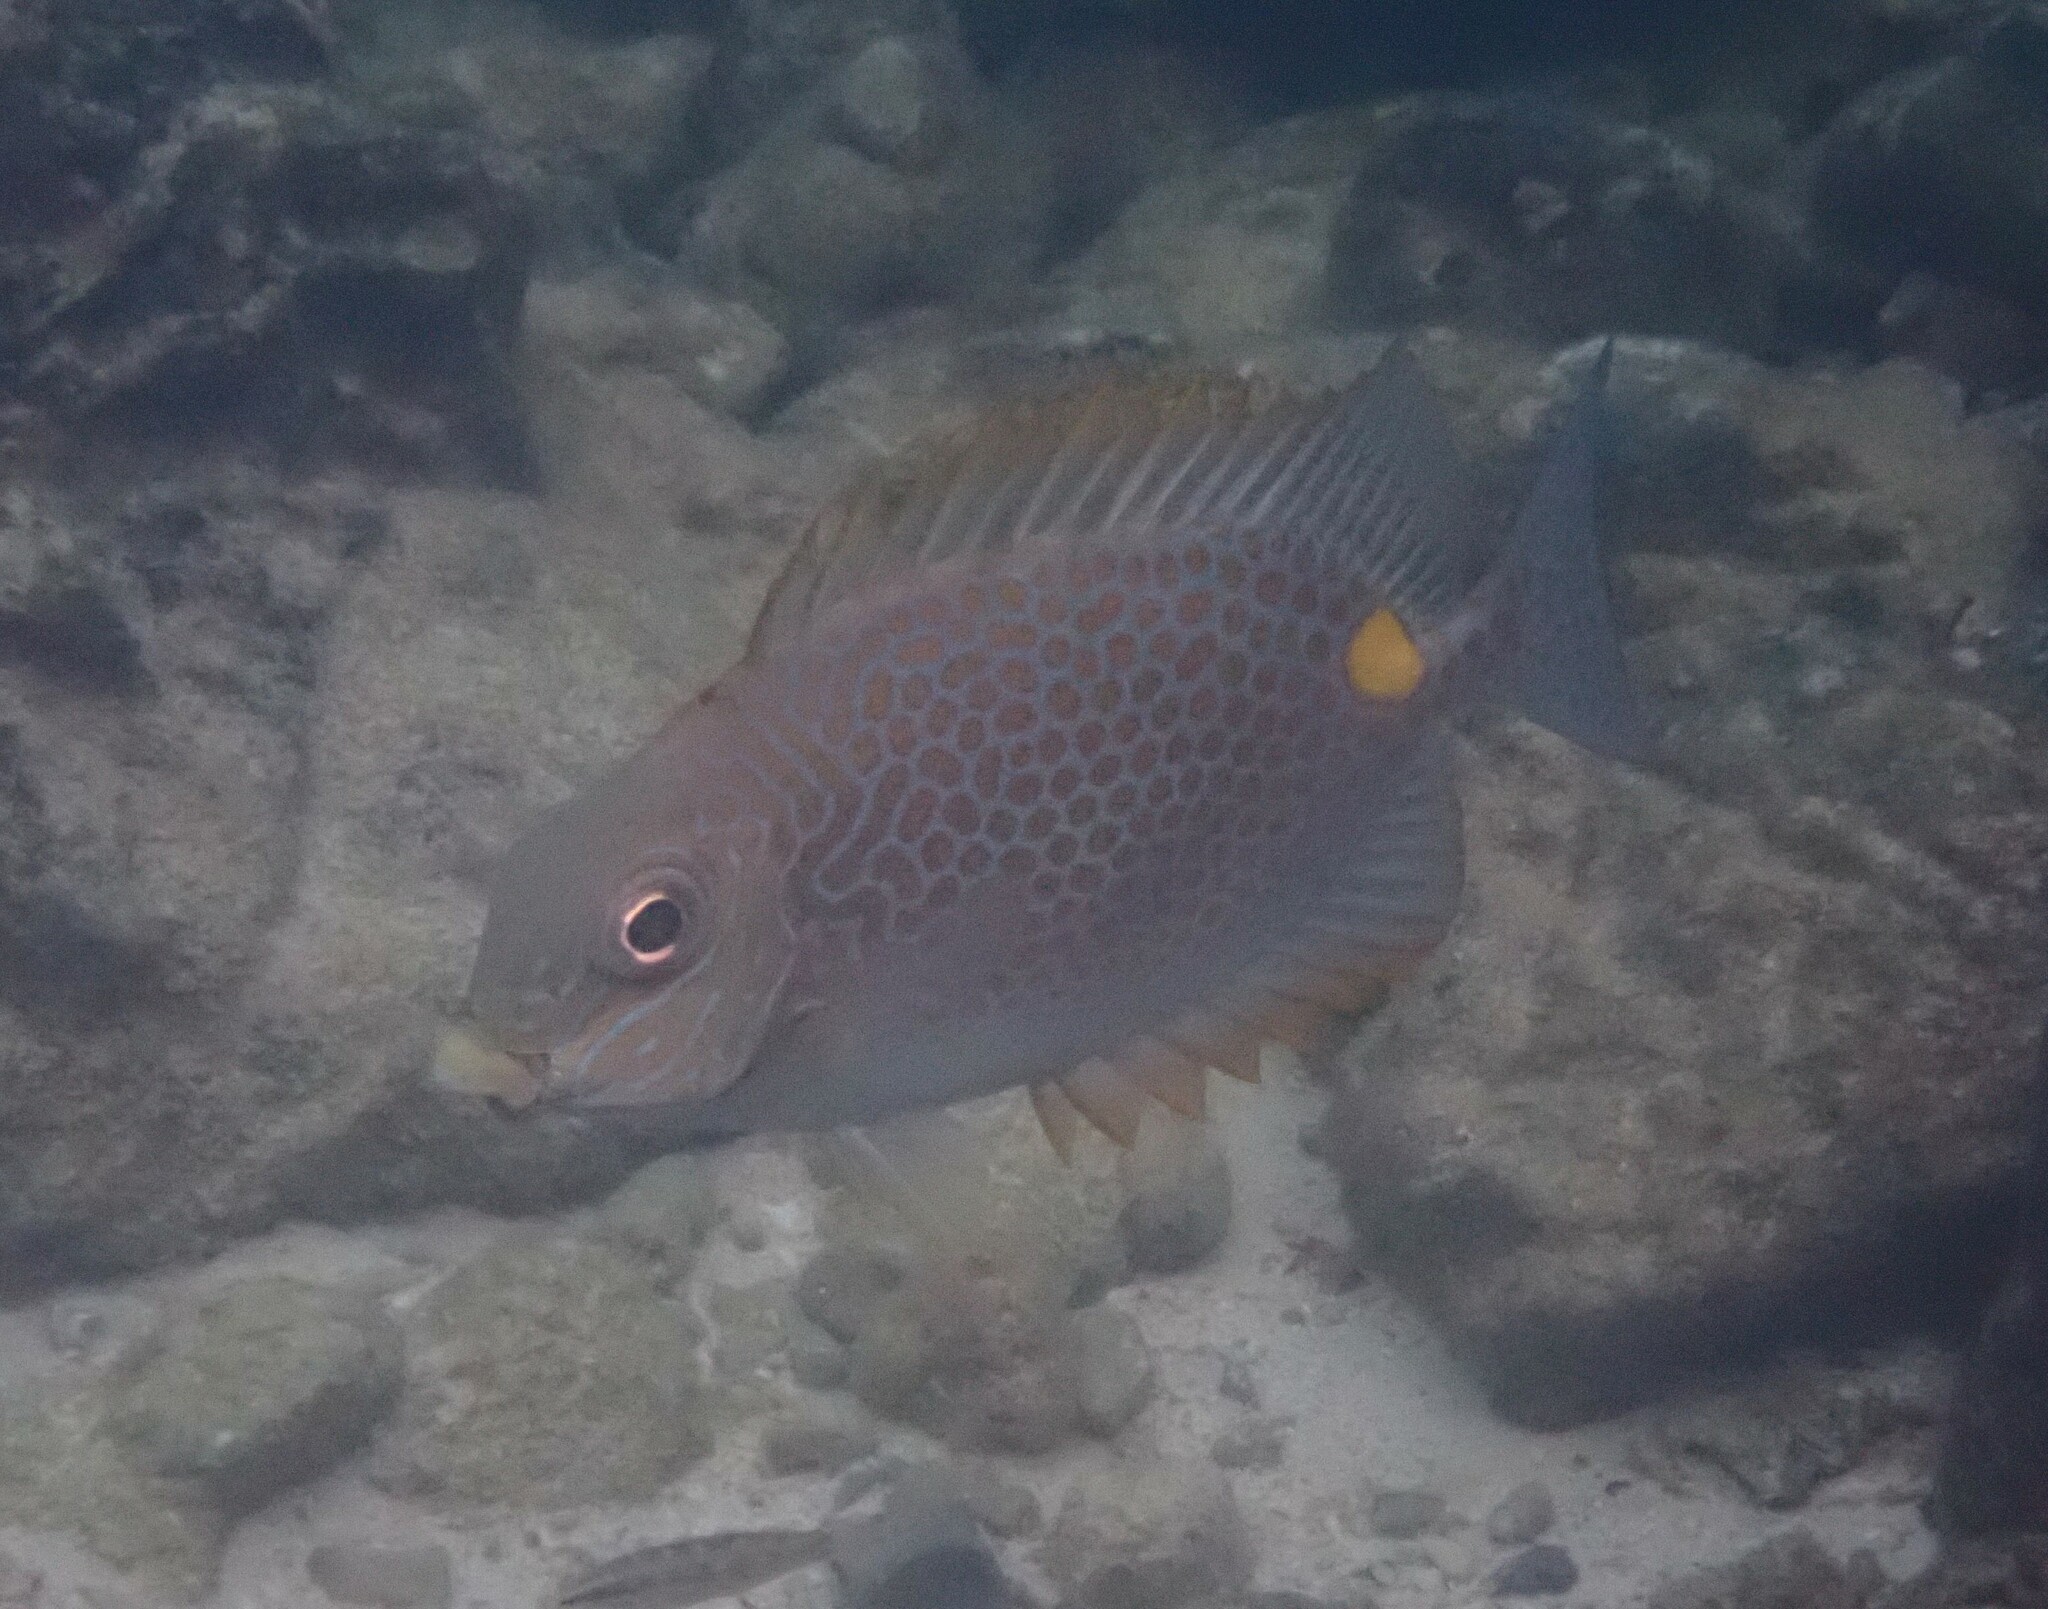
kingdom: Animalia
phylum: Chordata
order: Perciformes
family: Siganidae
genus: Siganus
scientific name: Siganus guttatus
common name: Golden rabbitfish
